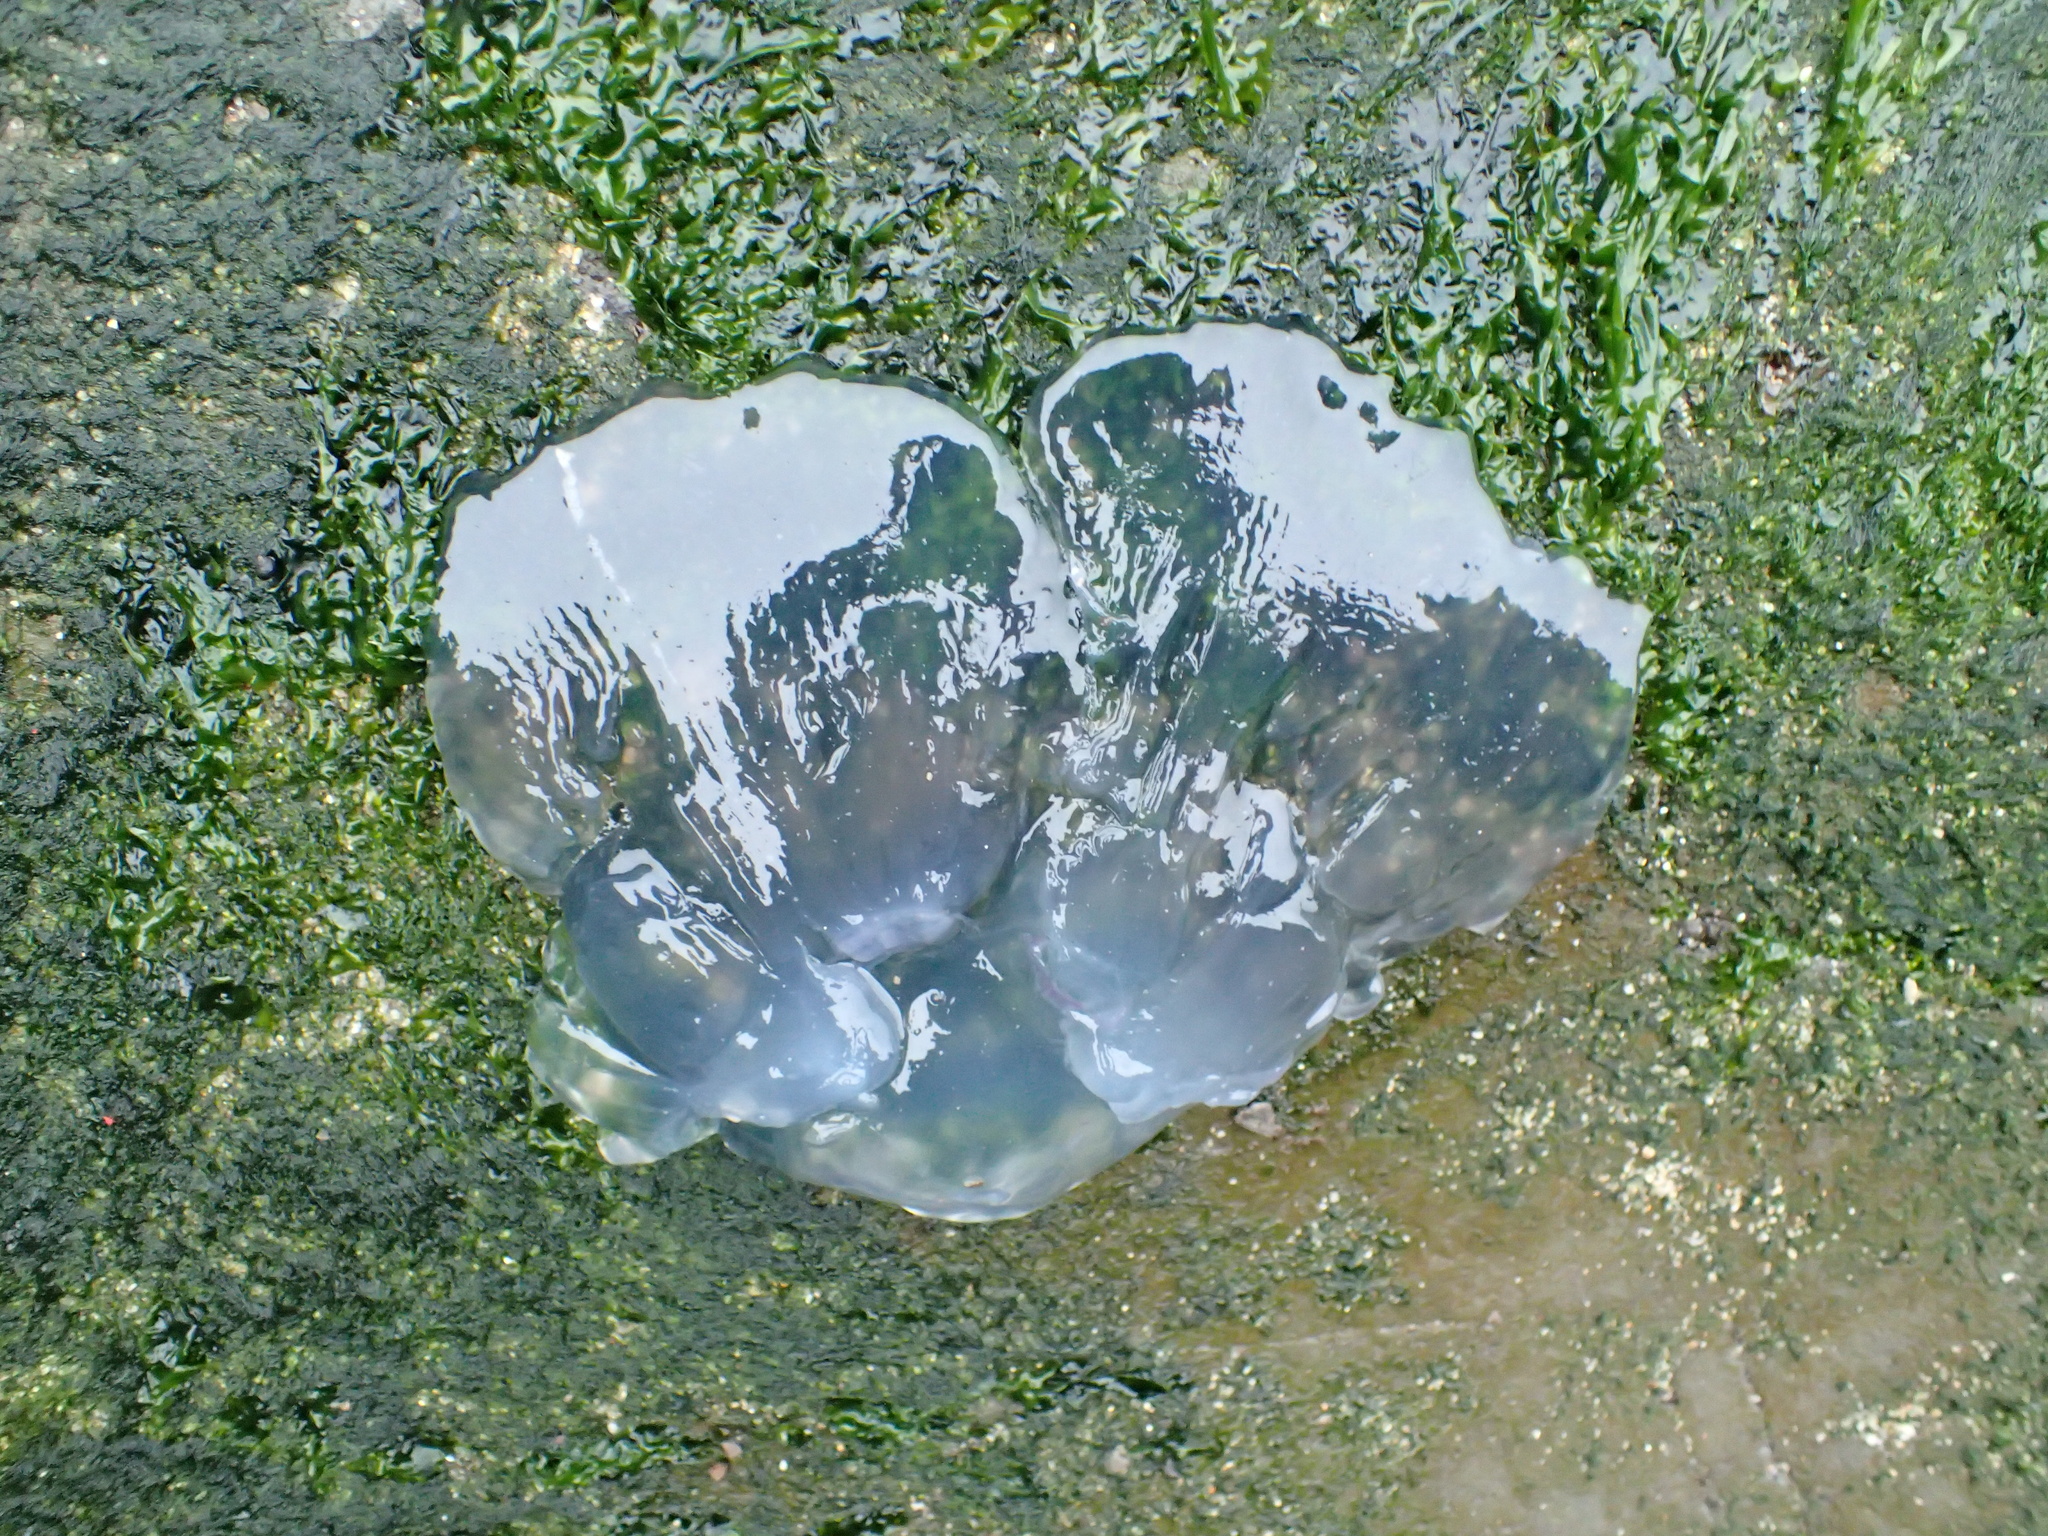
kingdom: Animalia
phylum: Cnidaria
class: Scyphozoa
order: Semaeostomeae
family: Ulmaridae
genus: Aurelia
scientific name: Aurelia labiata
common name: Pacific moon jelly
